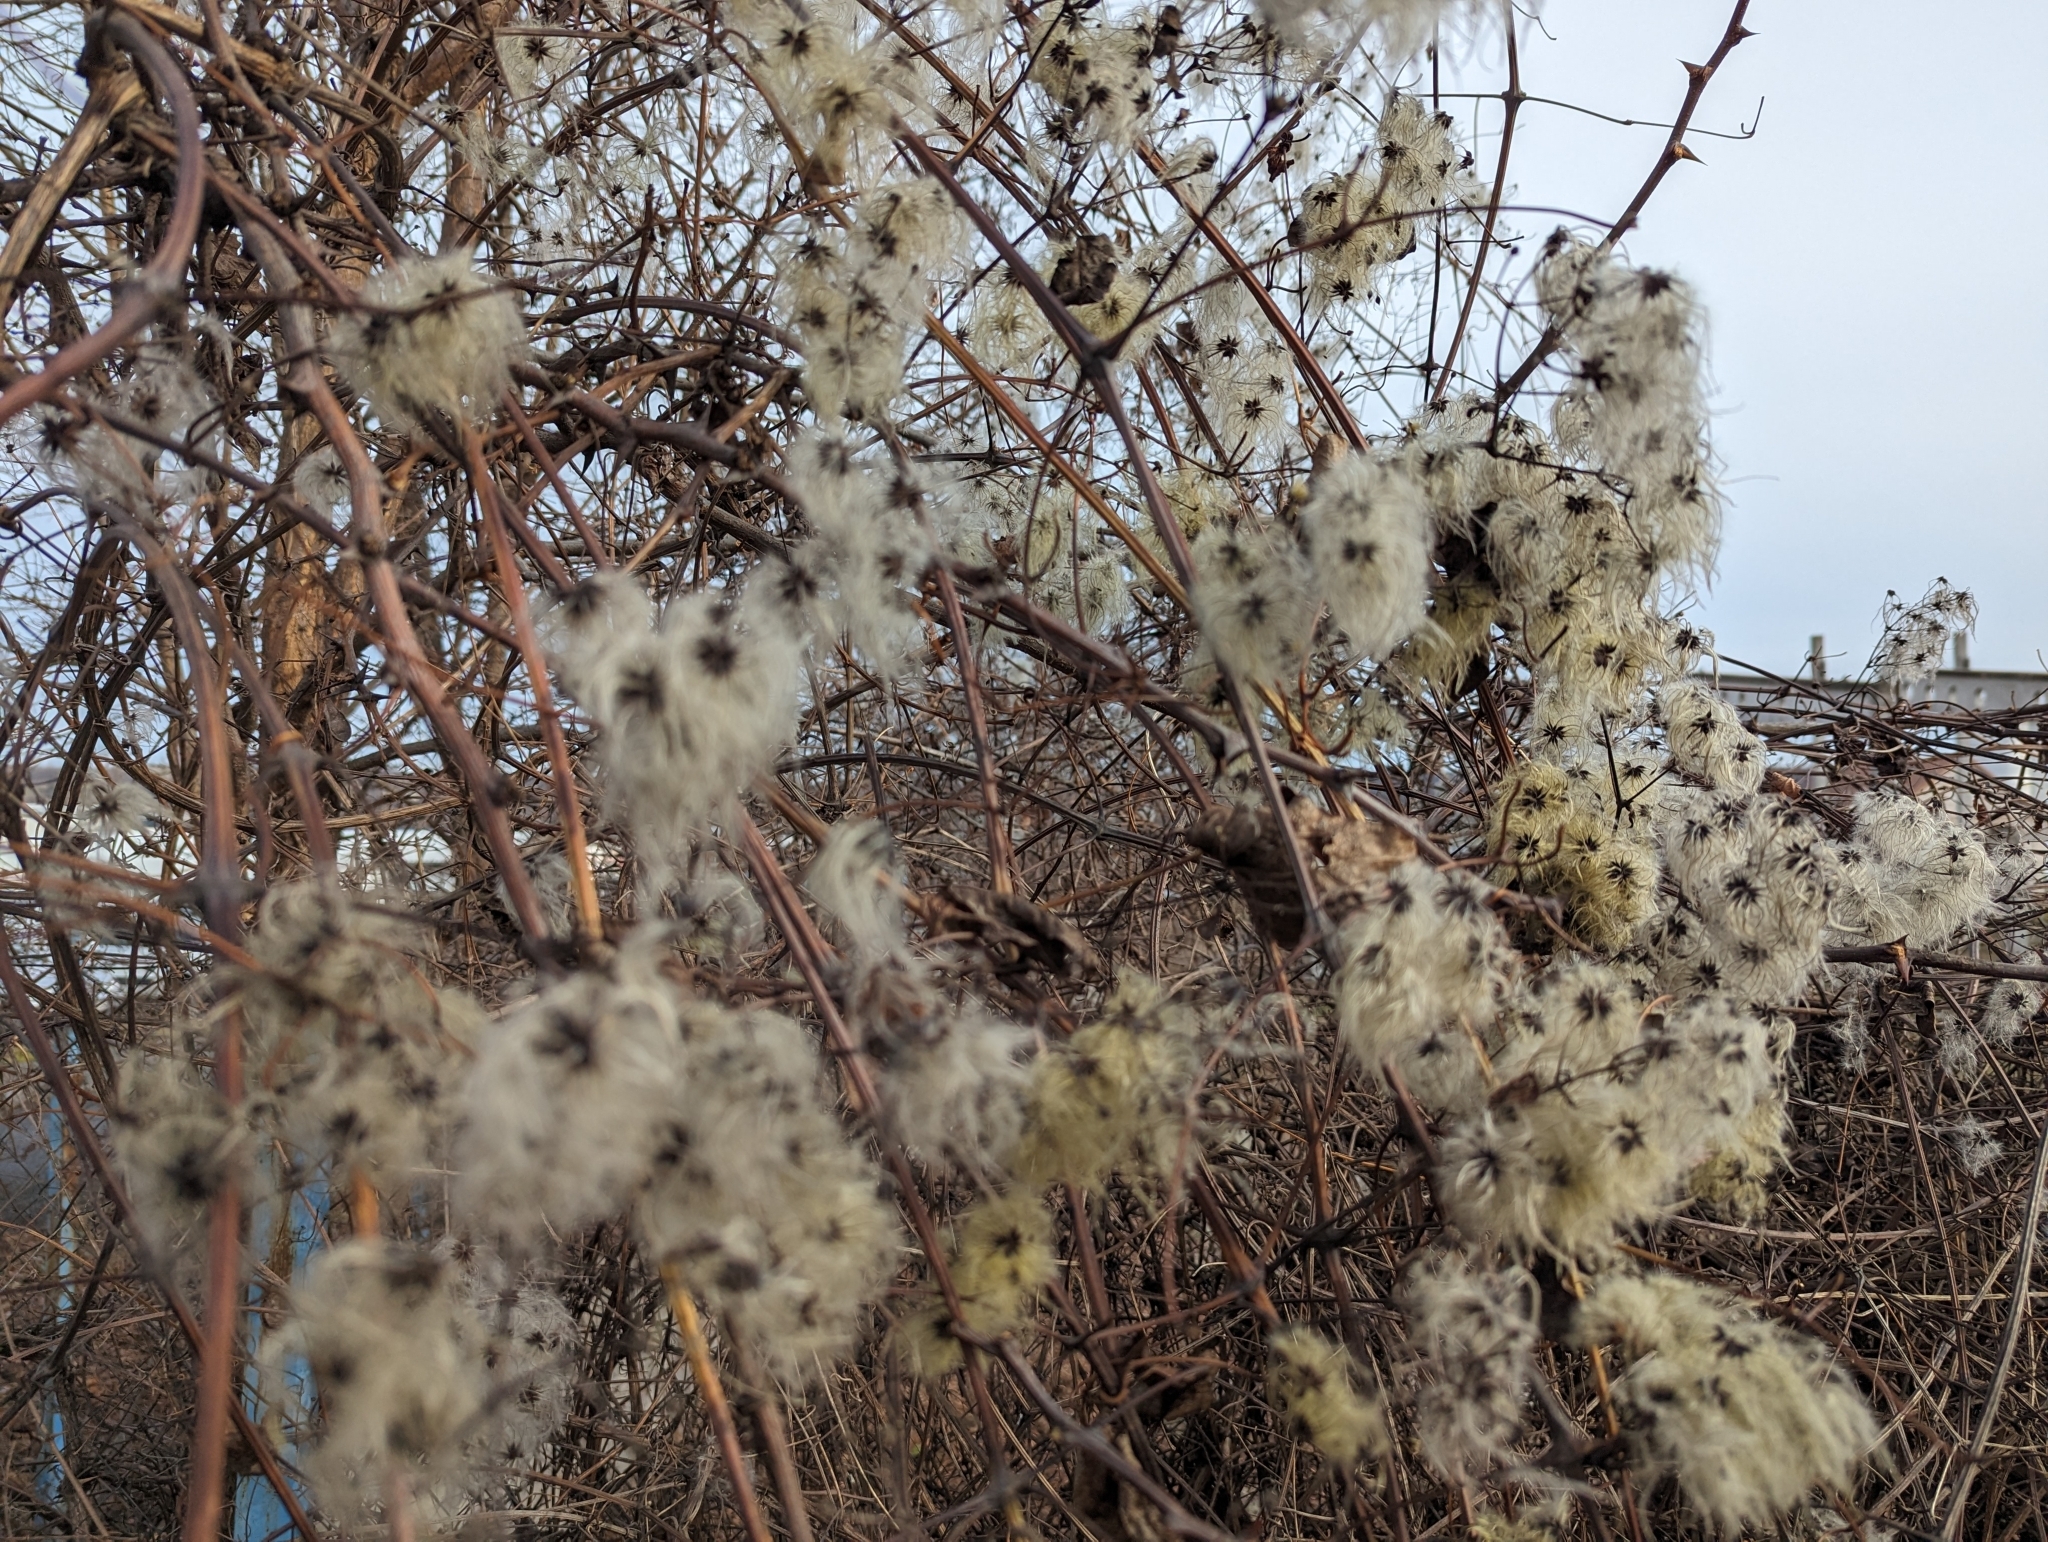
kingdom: Plantae
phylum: Tracheophyta
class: Magnoliopsida
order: Ranunculales
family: Ranunculaceae
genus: Clematis
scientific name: Clematis vitalba
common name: Evergreen clematis
